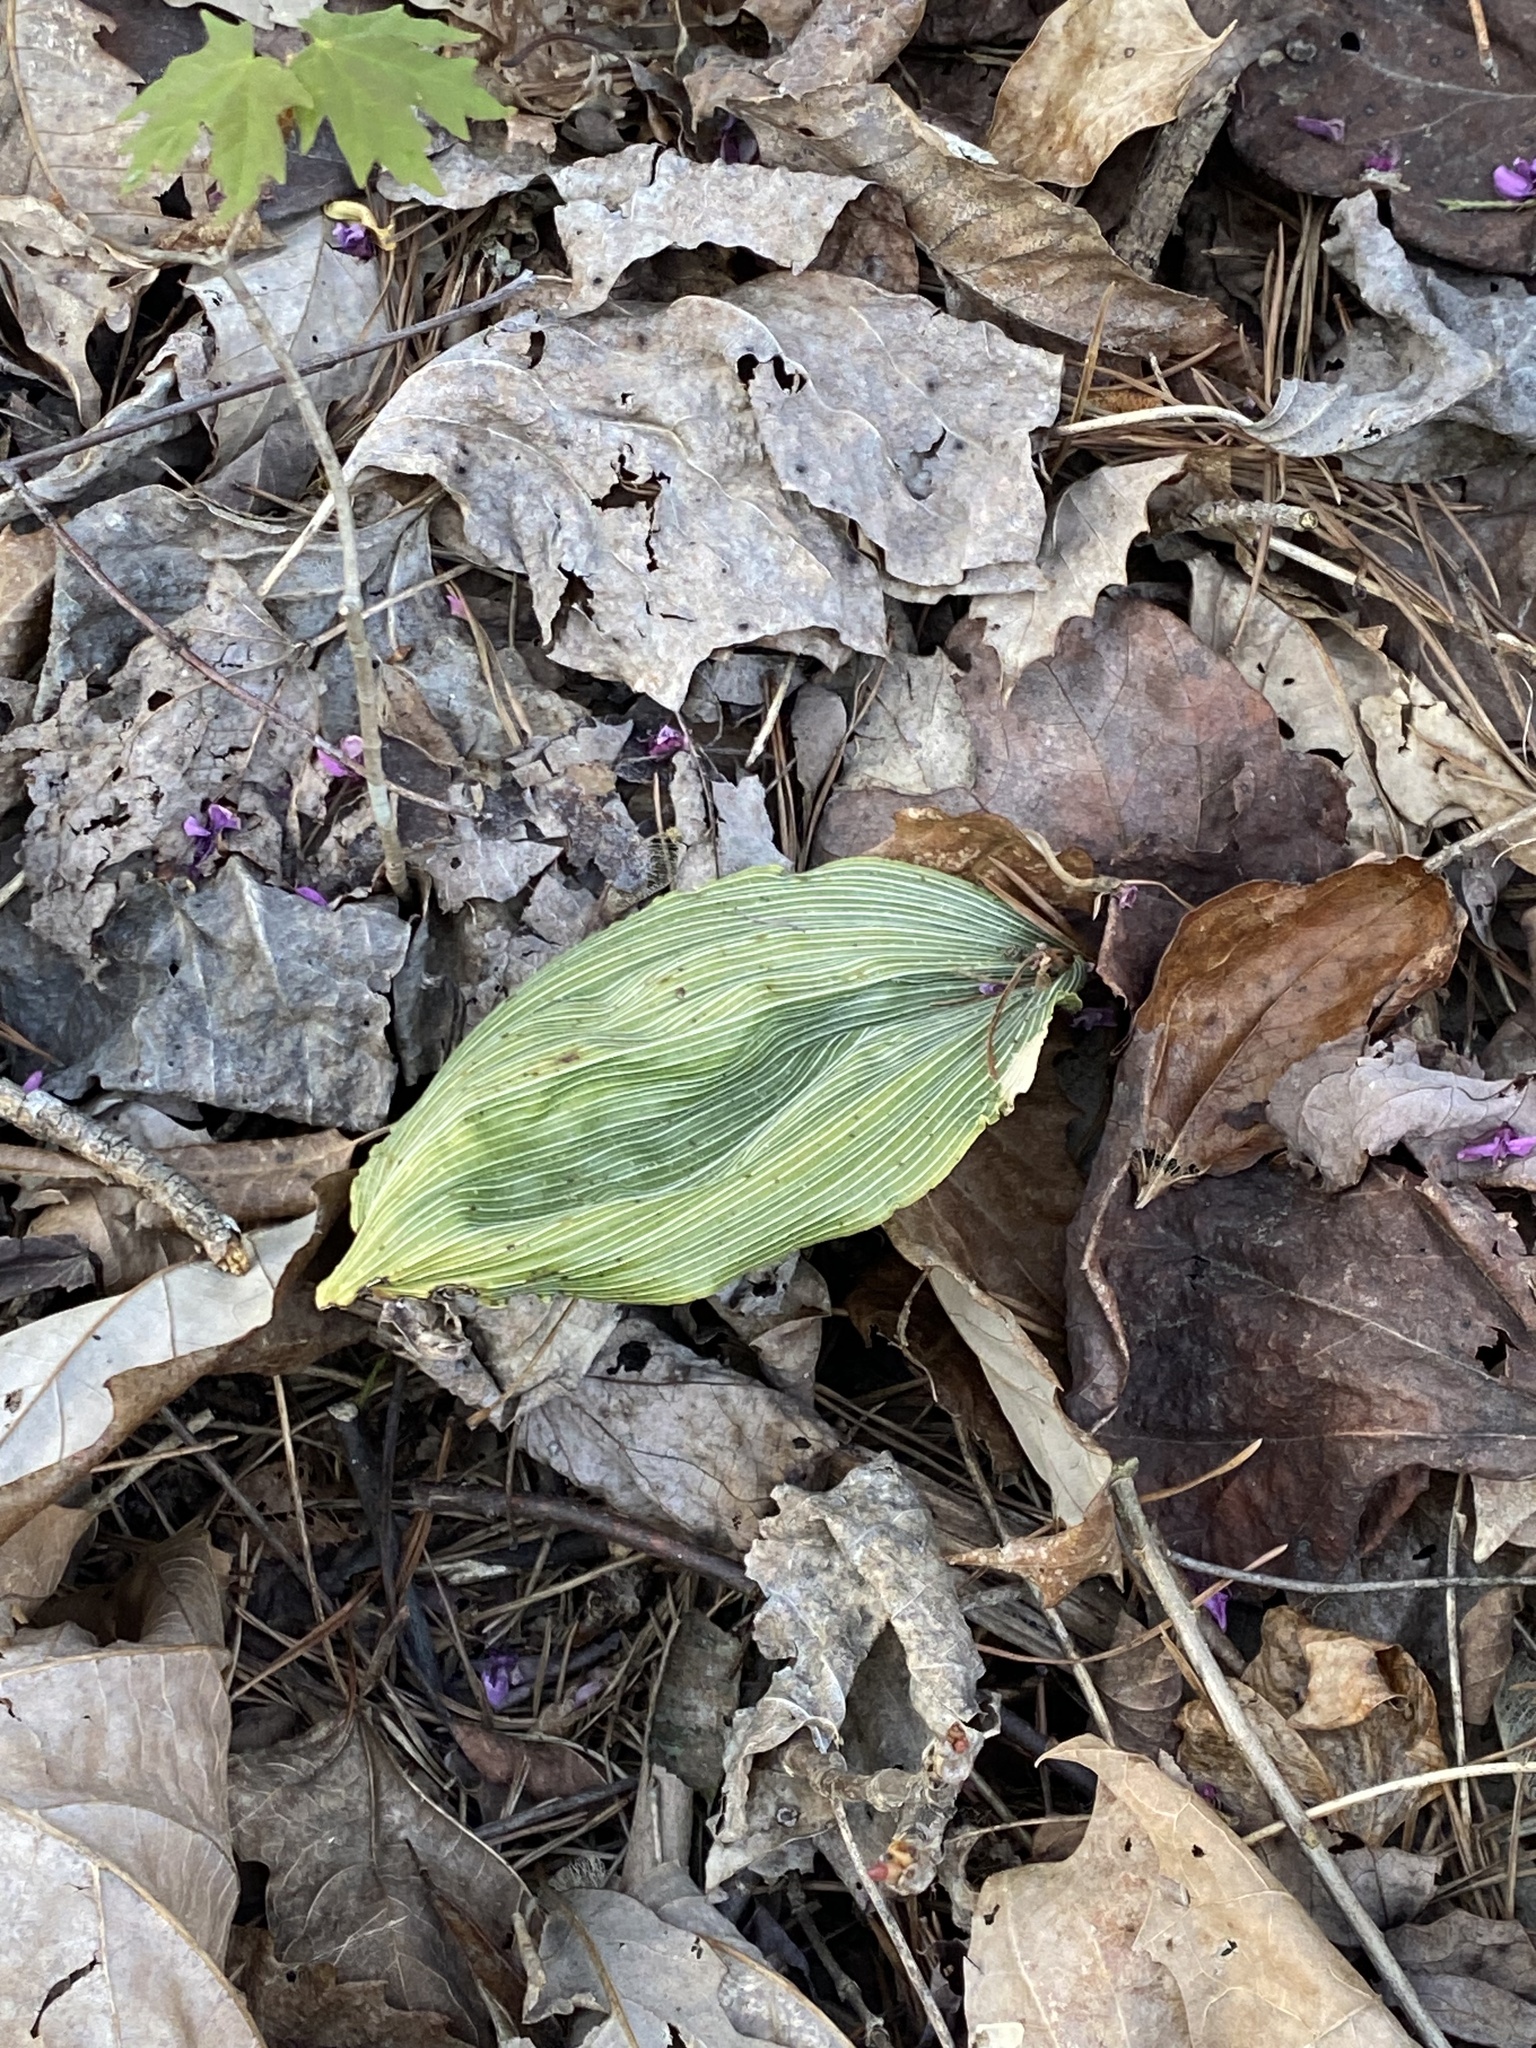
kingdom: Plantae
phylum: Tracheophyta
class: Liliopsida
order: Asparagales
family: Orchidaceae
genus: Aplectrum
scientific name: Aplectrum hyemale
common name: Adam-and-eve
